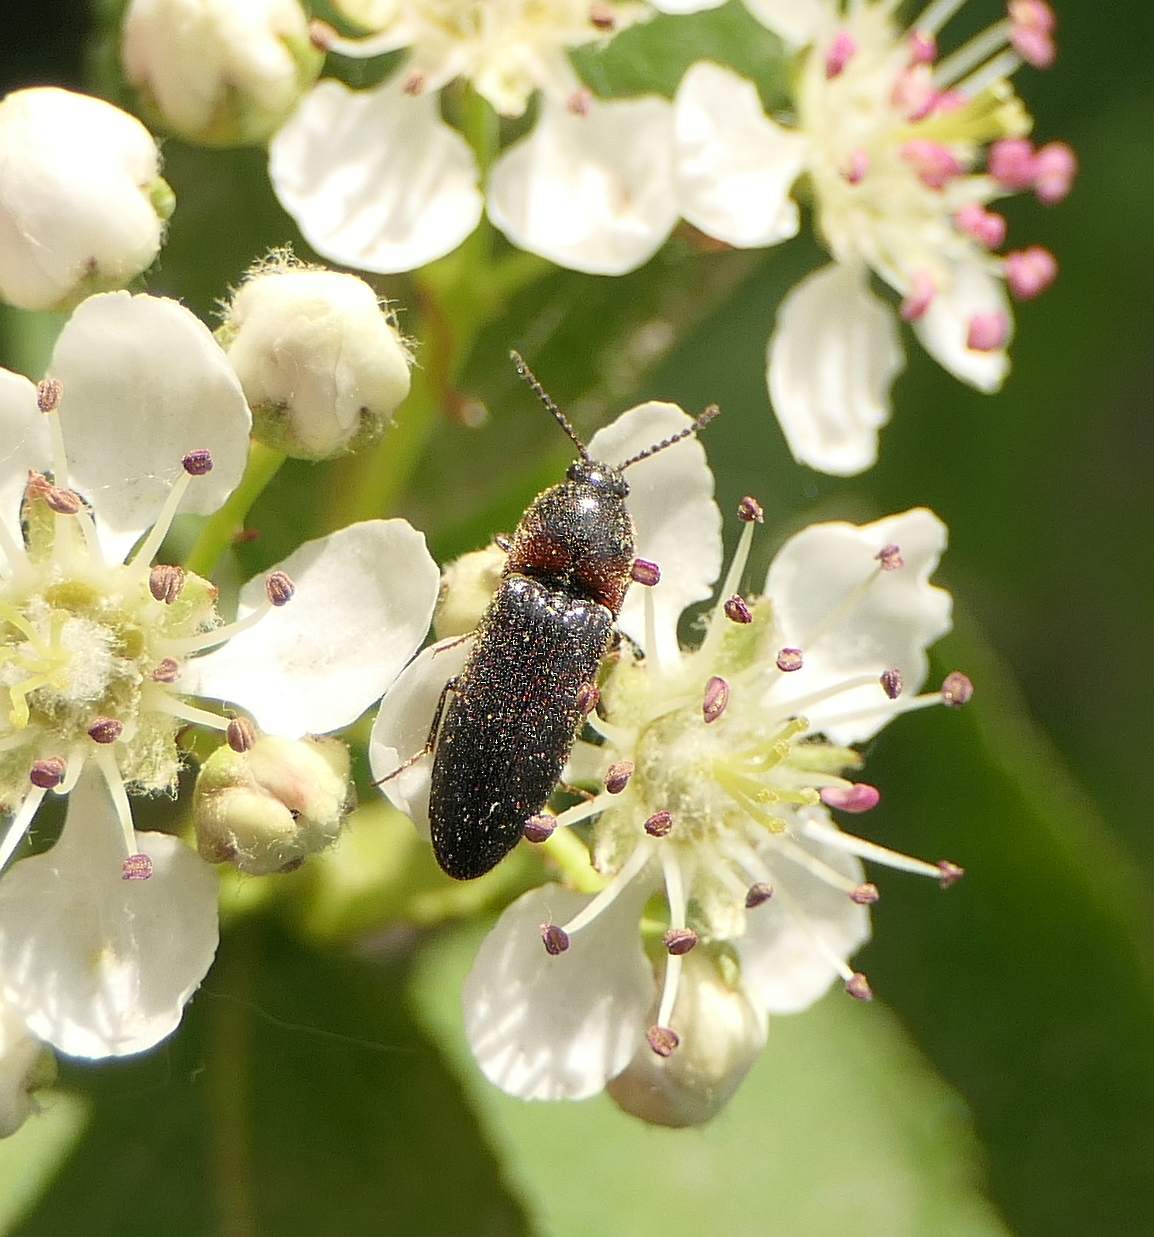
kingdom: Animalia
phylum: Arthropoda
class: Insecta
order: Coleoptera
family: Elateridae
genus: Ampedus
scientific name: Ampedus rubricus
